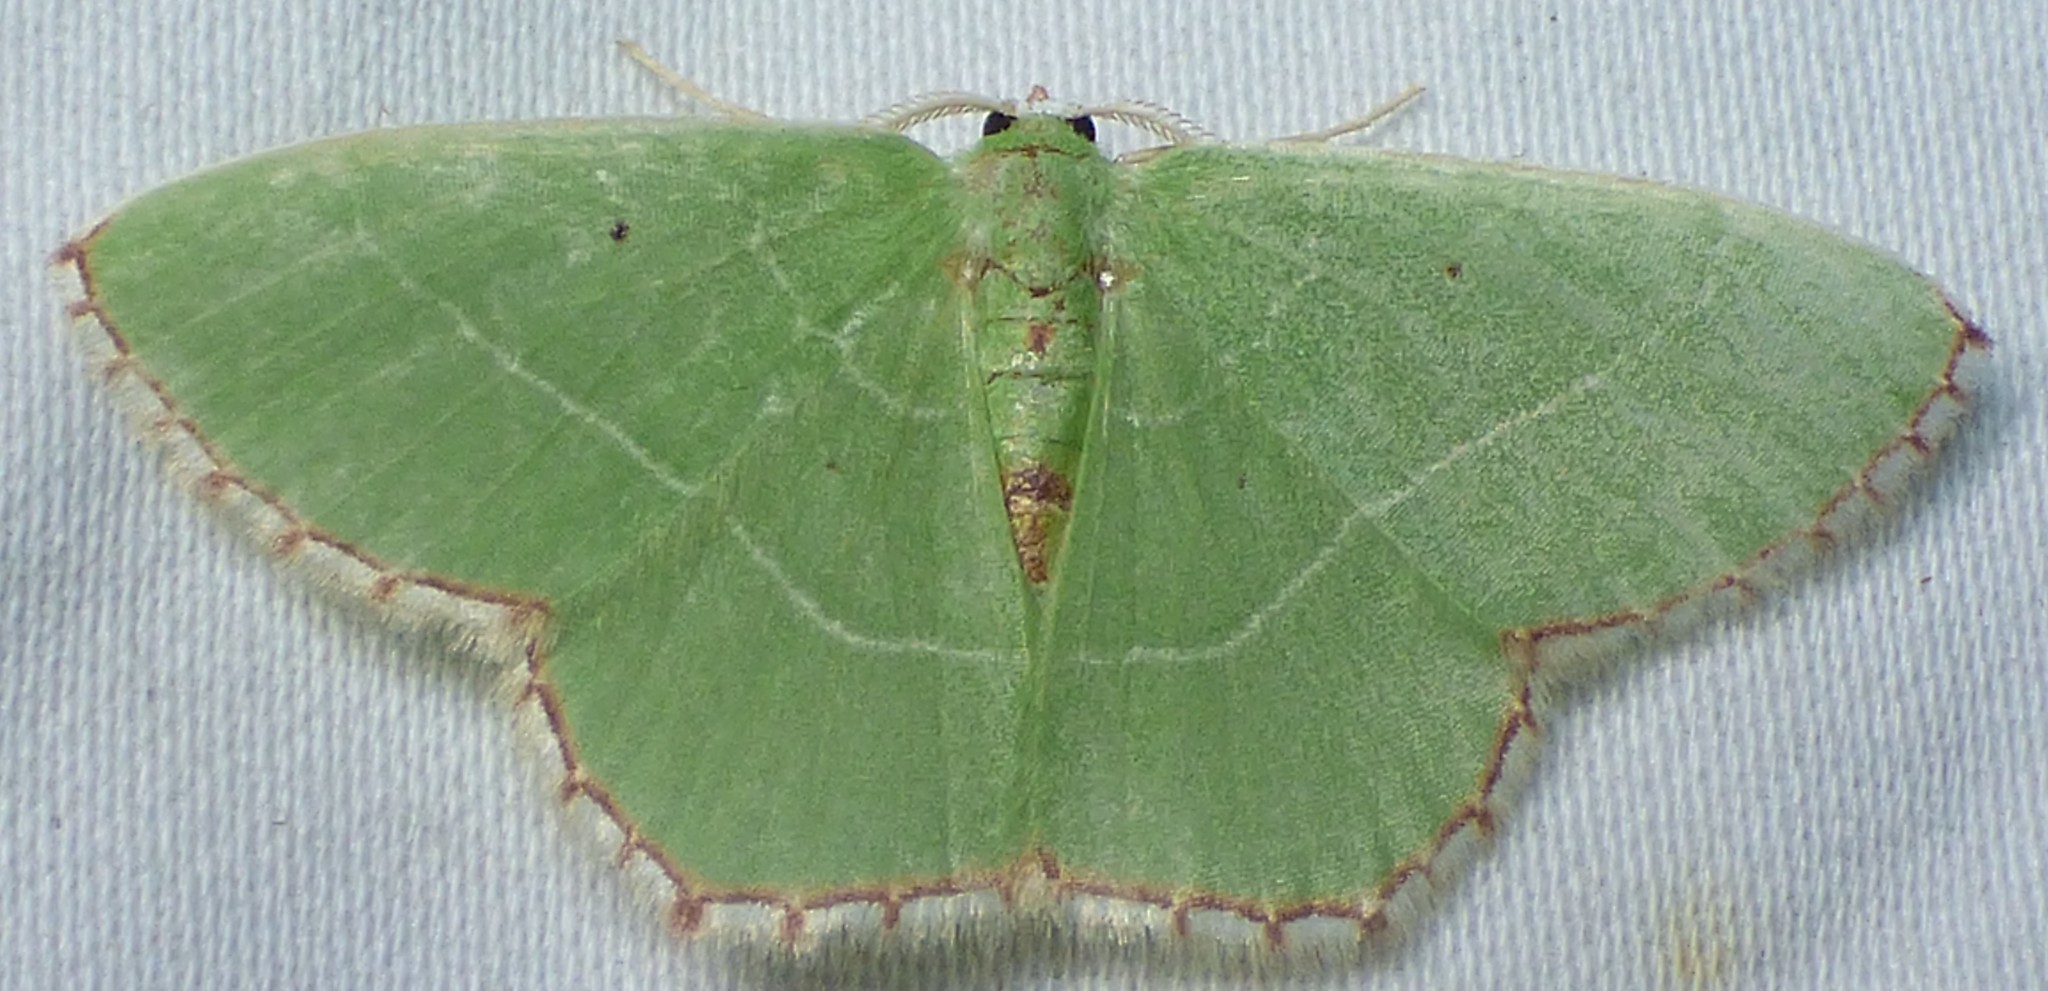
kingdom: Animalia
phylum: Arthropoda
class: Insecta
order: Lepidoptera
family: Geometridae
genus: Nemoria
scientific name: Nemoria saturiba
